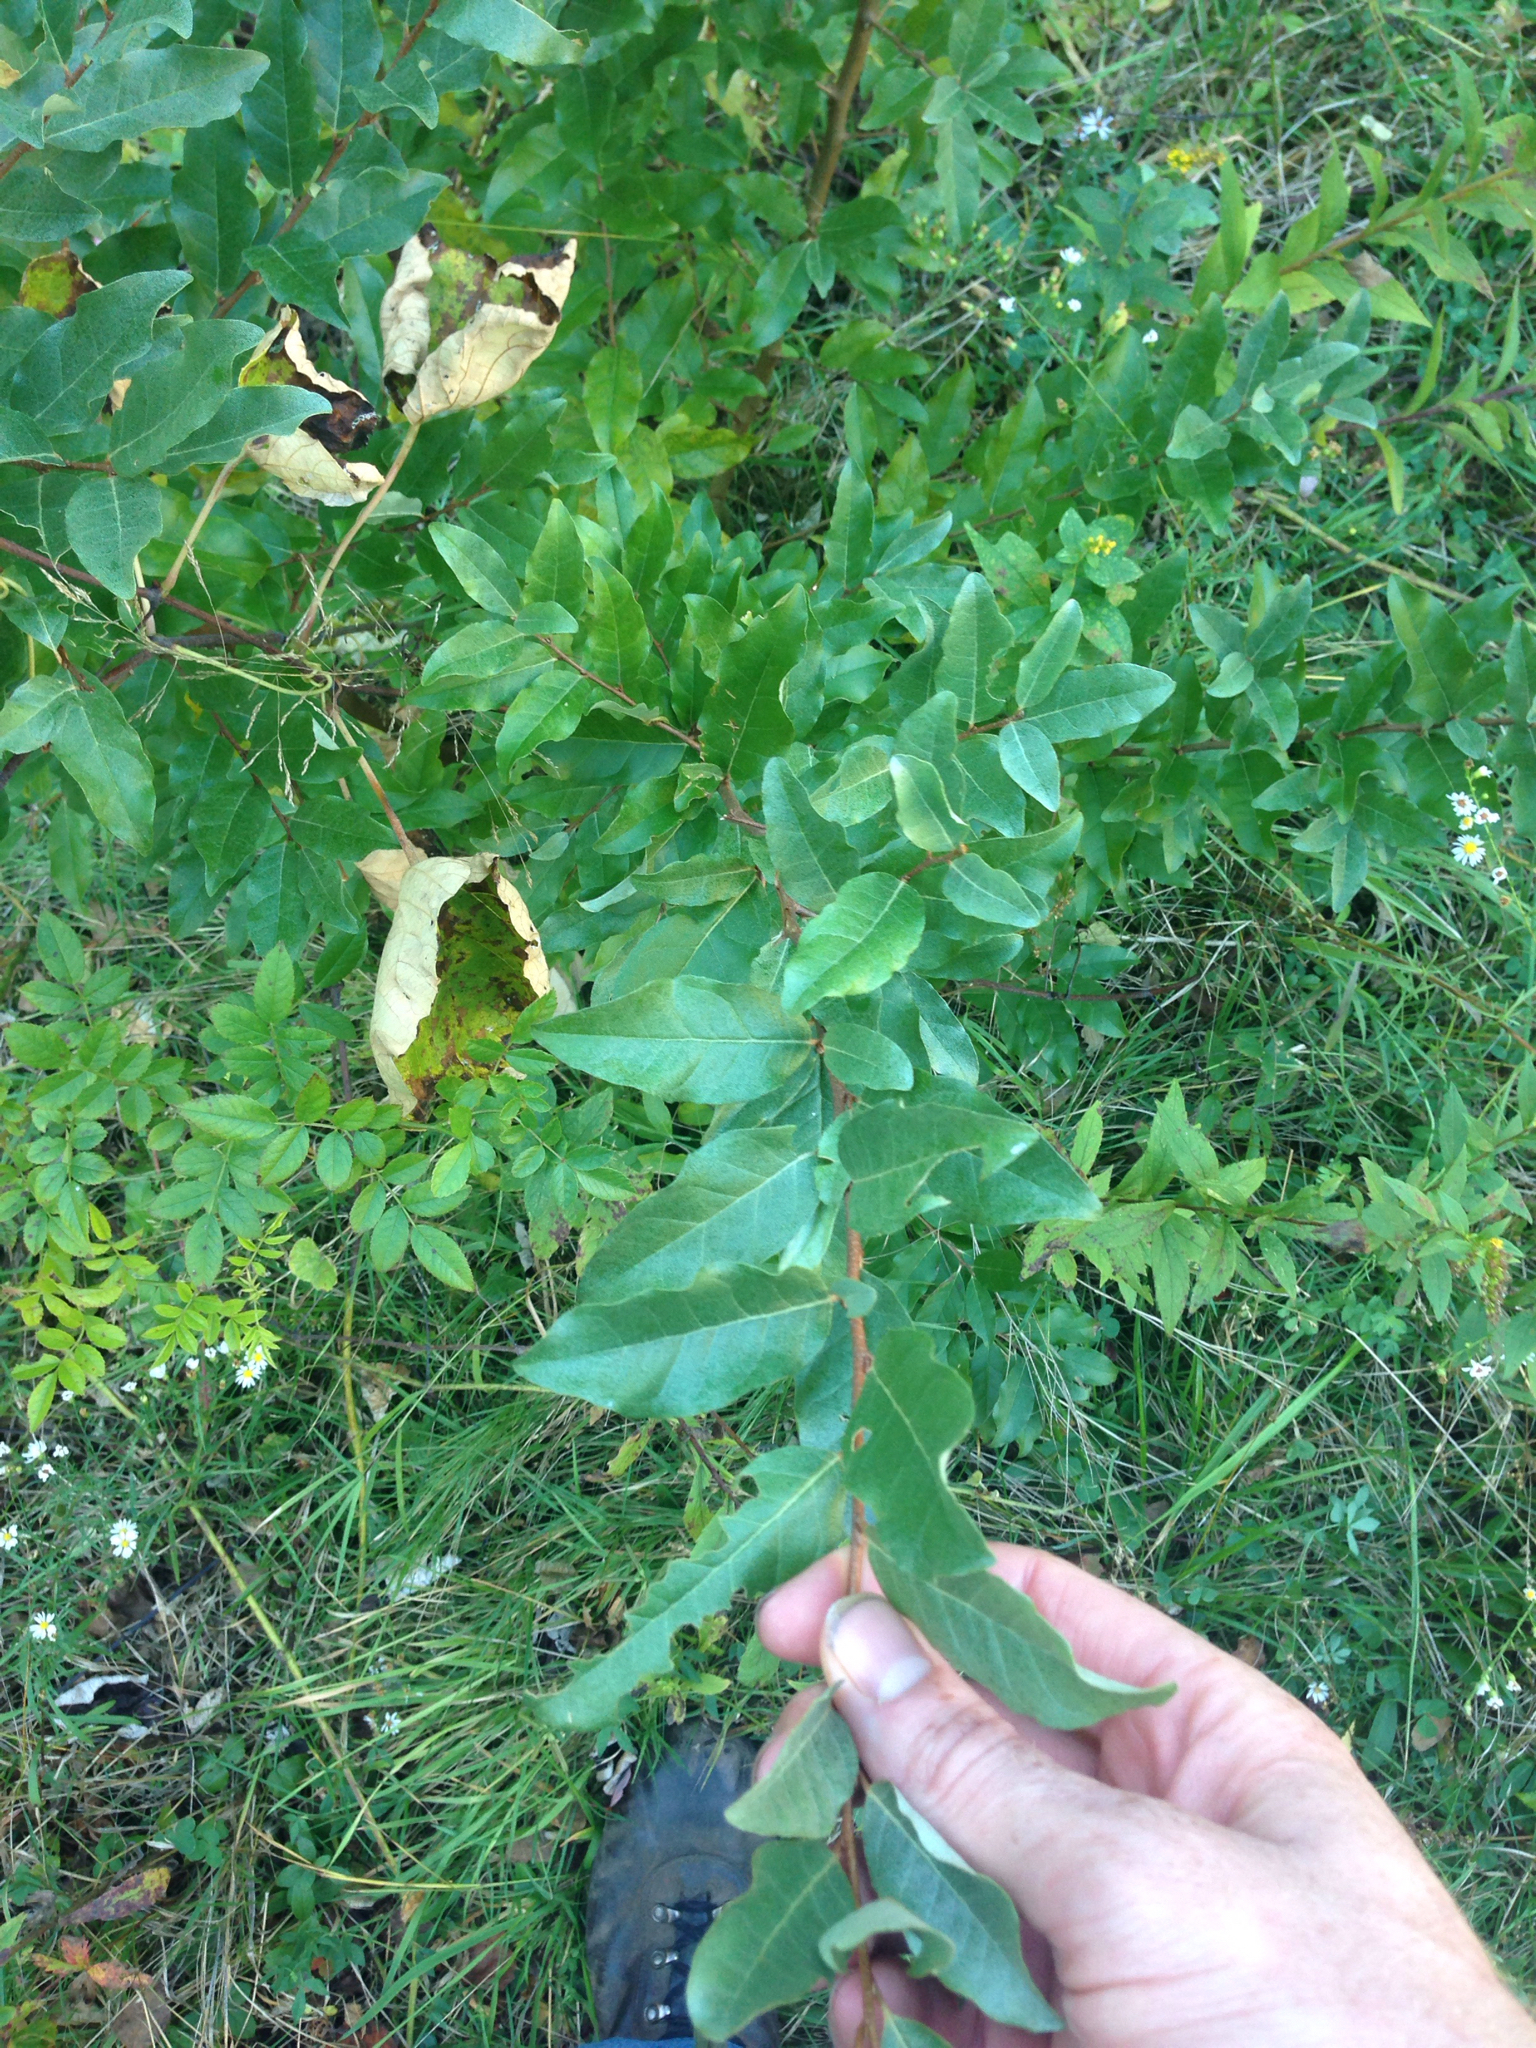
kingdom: Plantae
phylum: Tracheophyta
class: Magnoliopsida
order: Rosales
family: Elaeagnaceae
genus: Elaeagnus
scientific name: Elaeagnus umbellata
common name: Autumn olive
